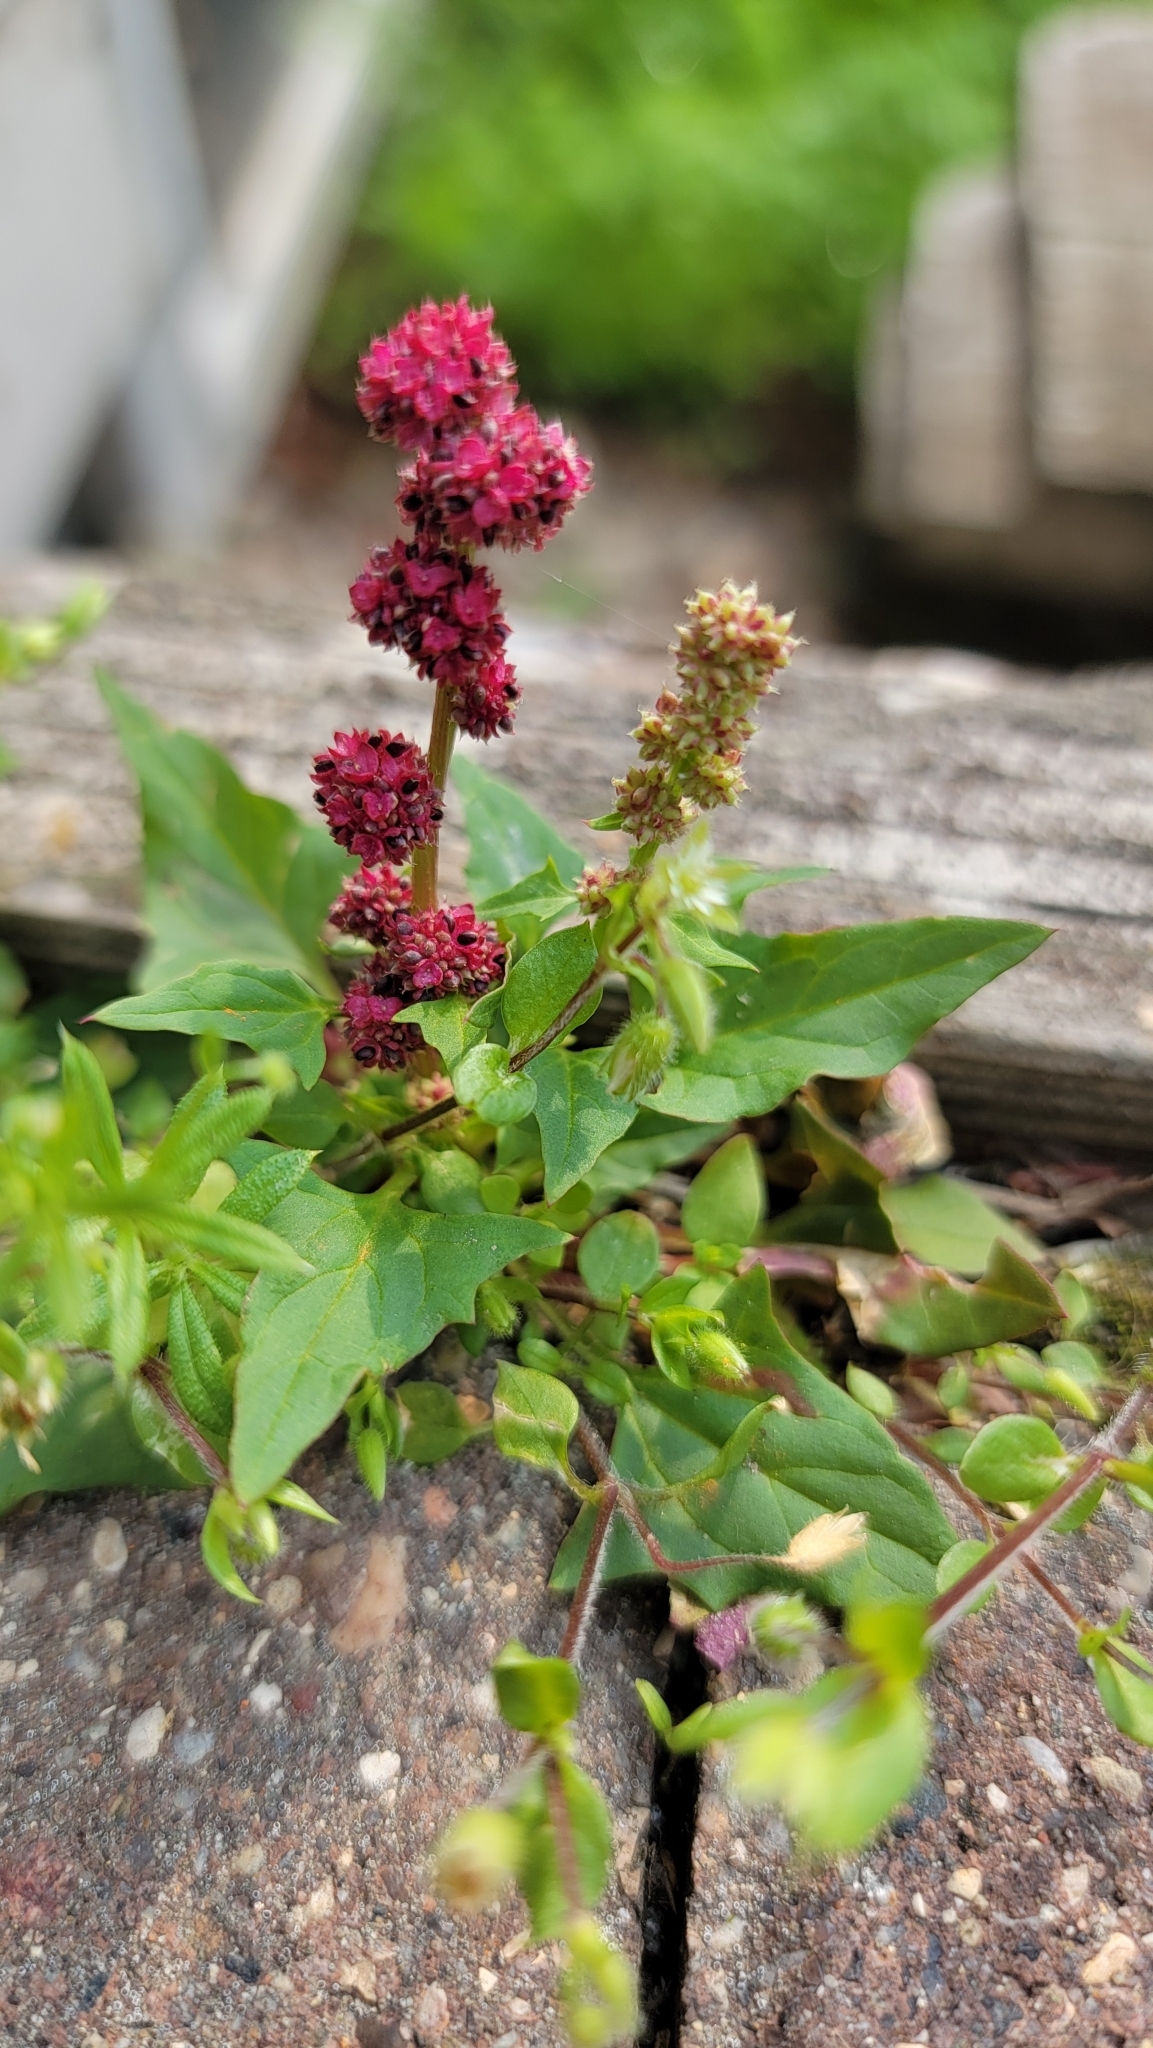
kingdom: Plantae
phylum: Tracheophyta
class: Magnoliopsida
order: Caryophyllales
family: Amaranthaceae
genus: Blitum
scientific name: Blitum capitatum
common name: Strawberry-blight
